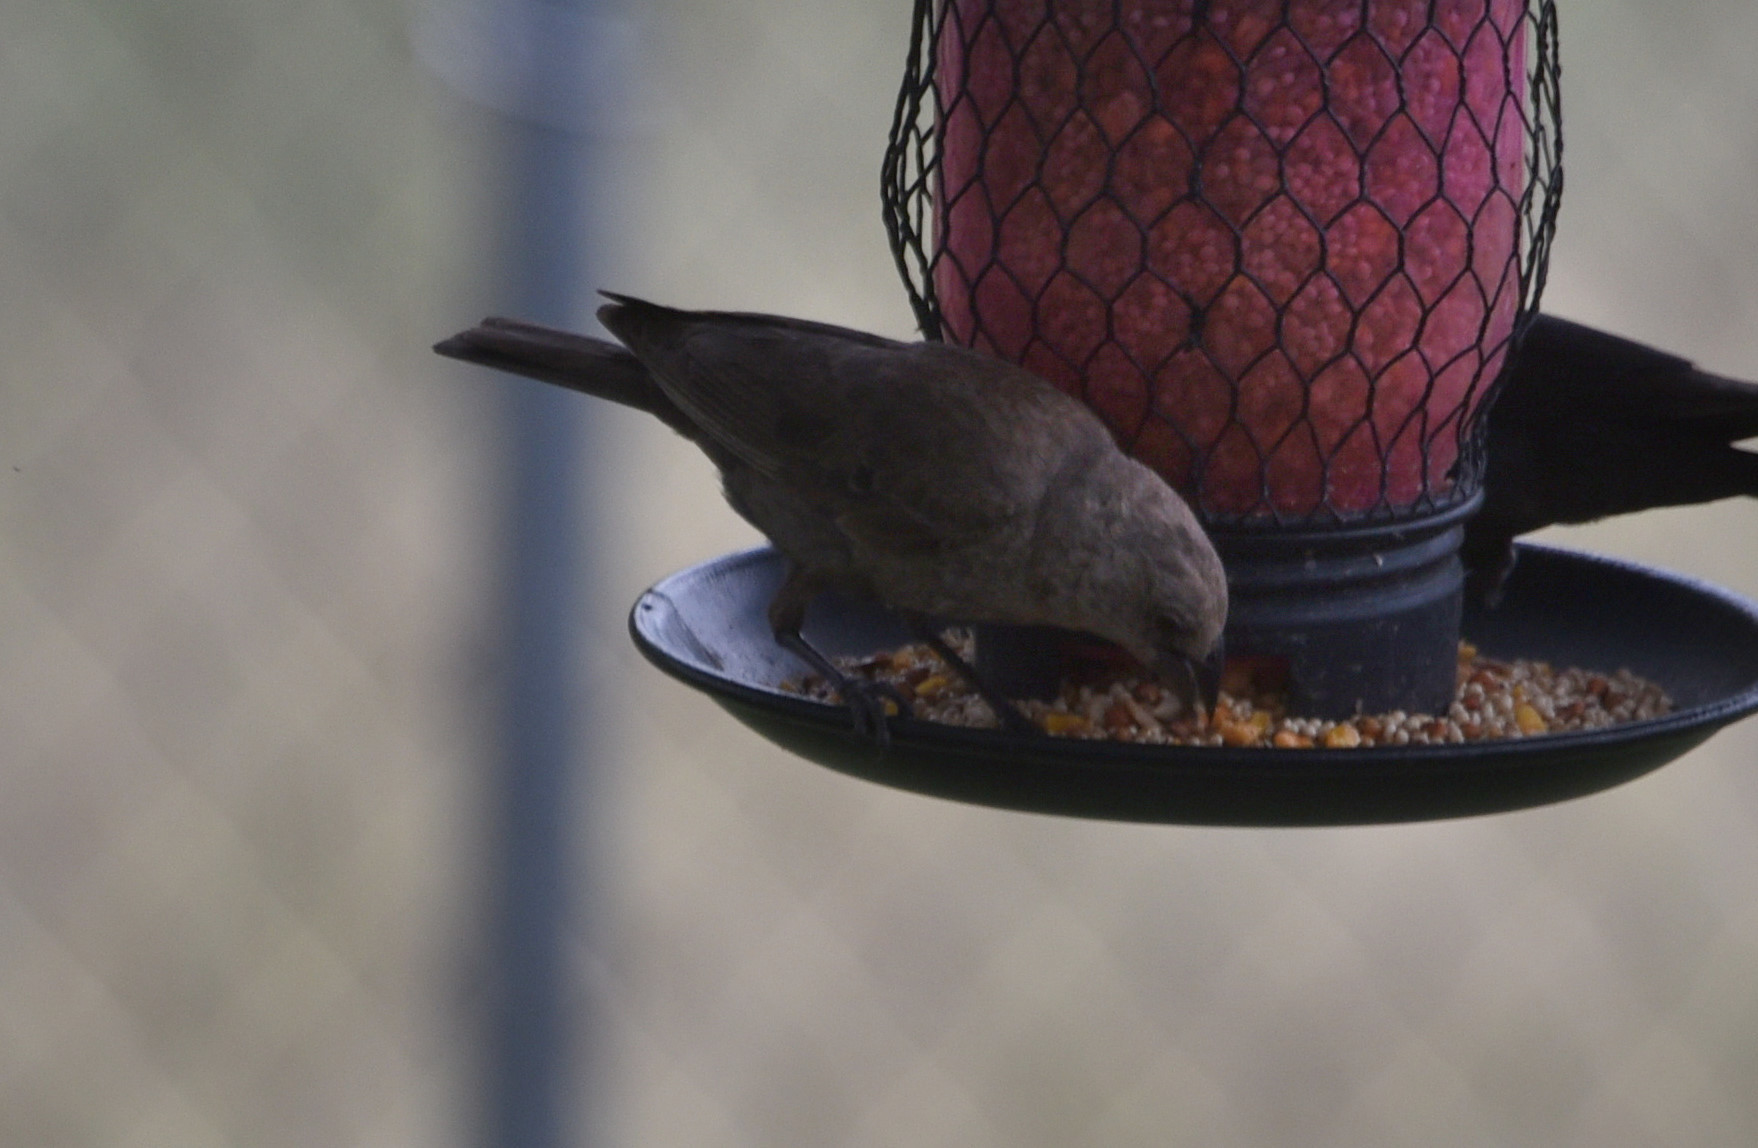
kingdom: Animalia
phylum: Chordata
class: Aves
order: Passeriformes
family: Icteridae
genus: Molothrus
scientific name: Molothrus ater
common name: Brown-headed cowbird
